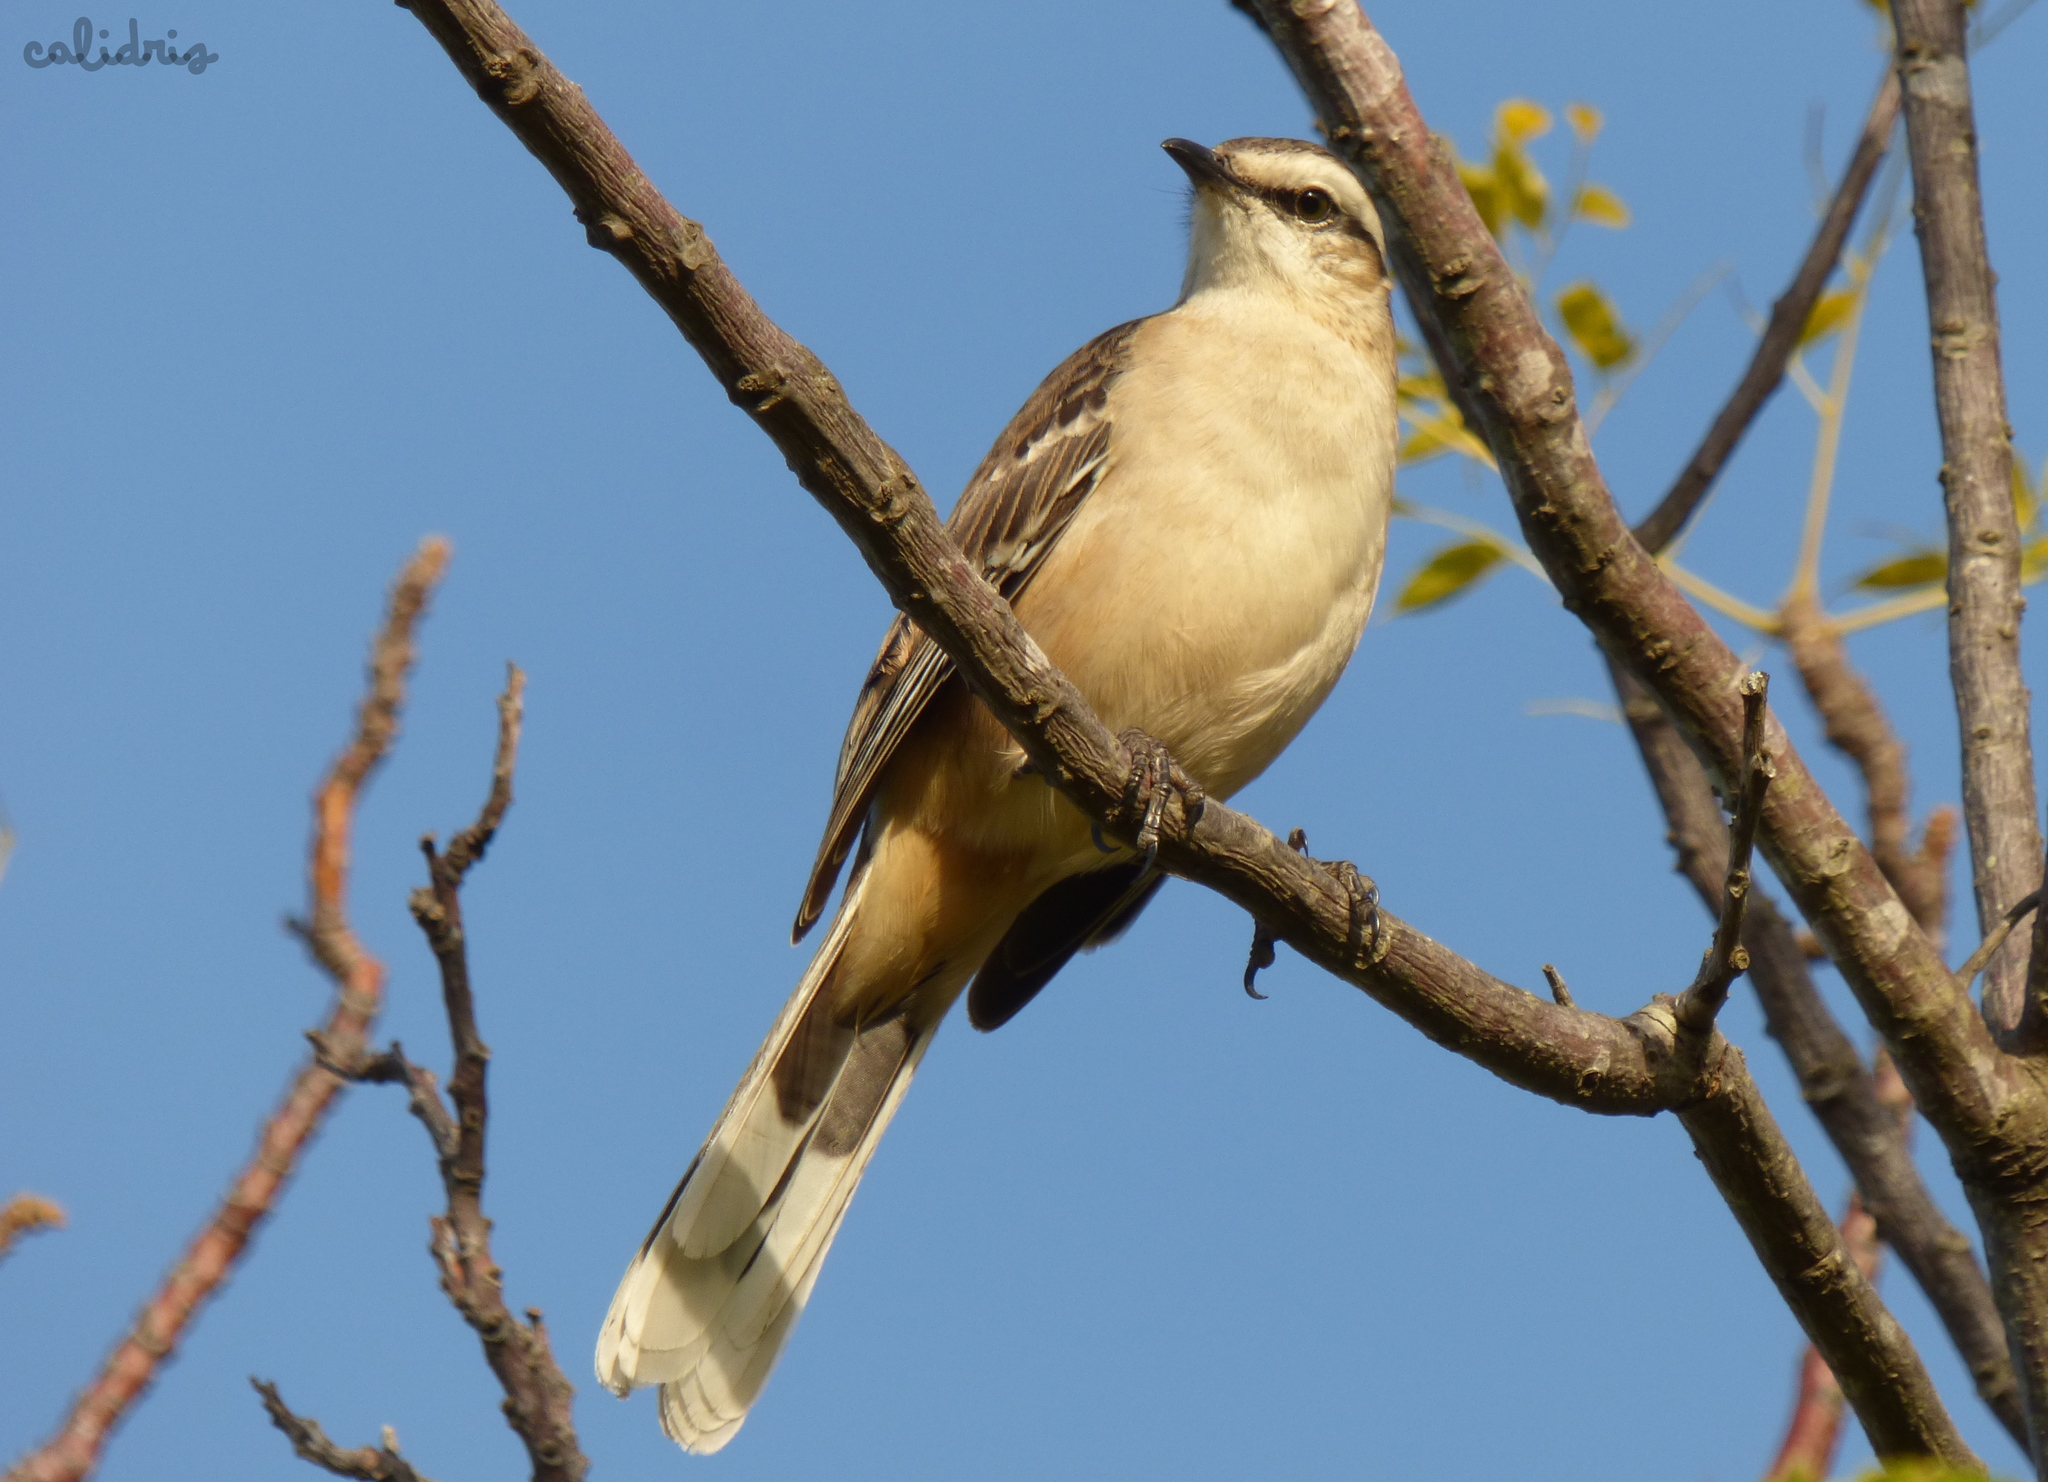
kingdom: Animalia
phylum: Chordata
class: Aves
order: Passeriformes
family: Mimidae
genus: Mimus
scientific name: Mimus saturninus
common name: Chalk-browed mockingbird
